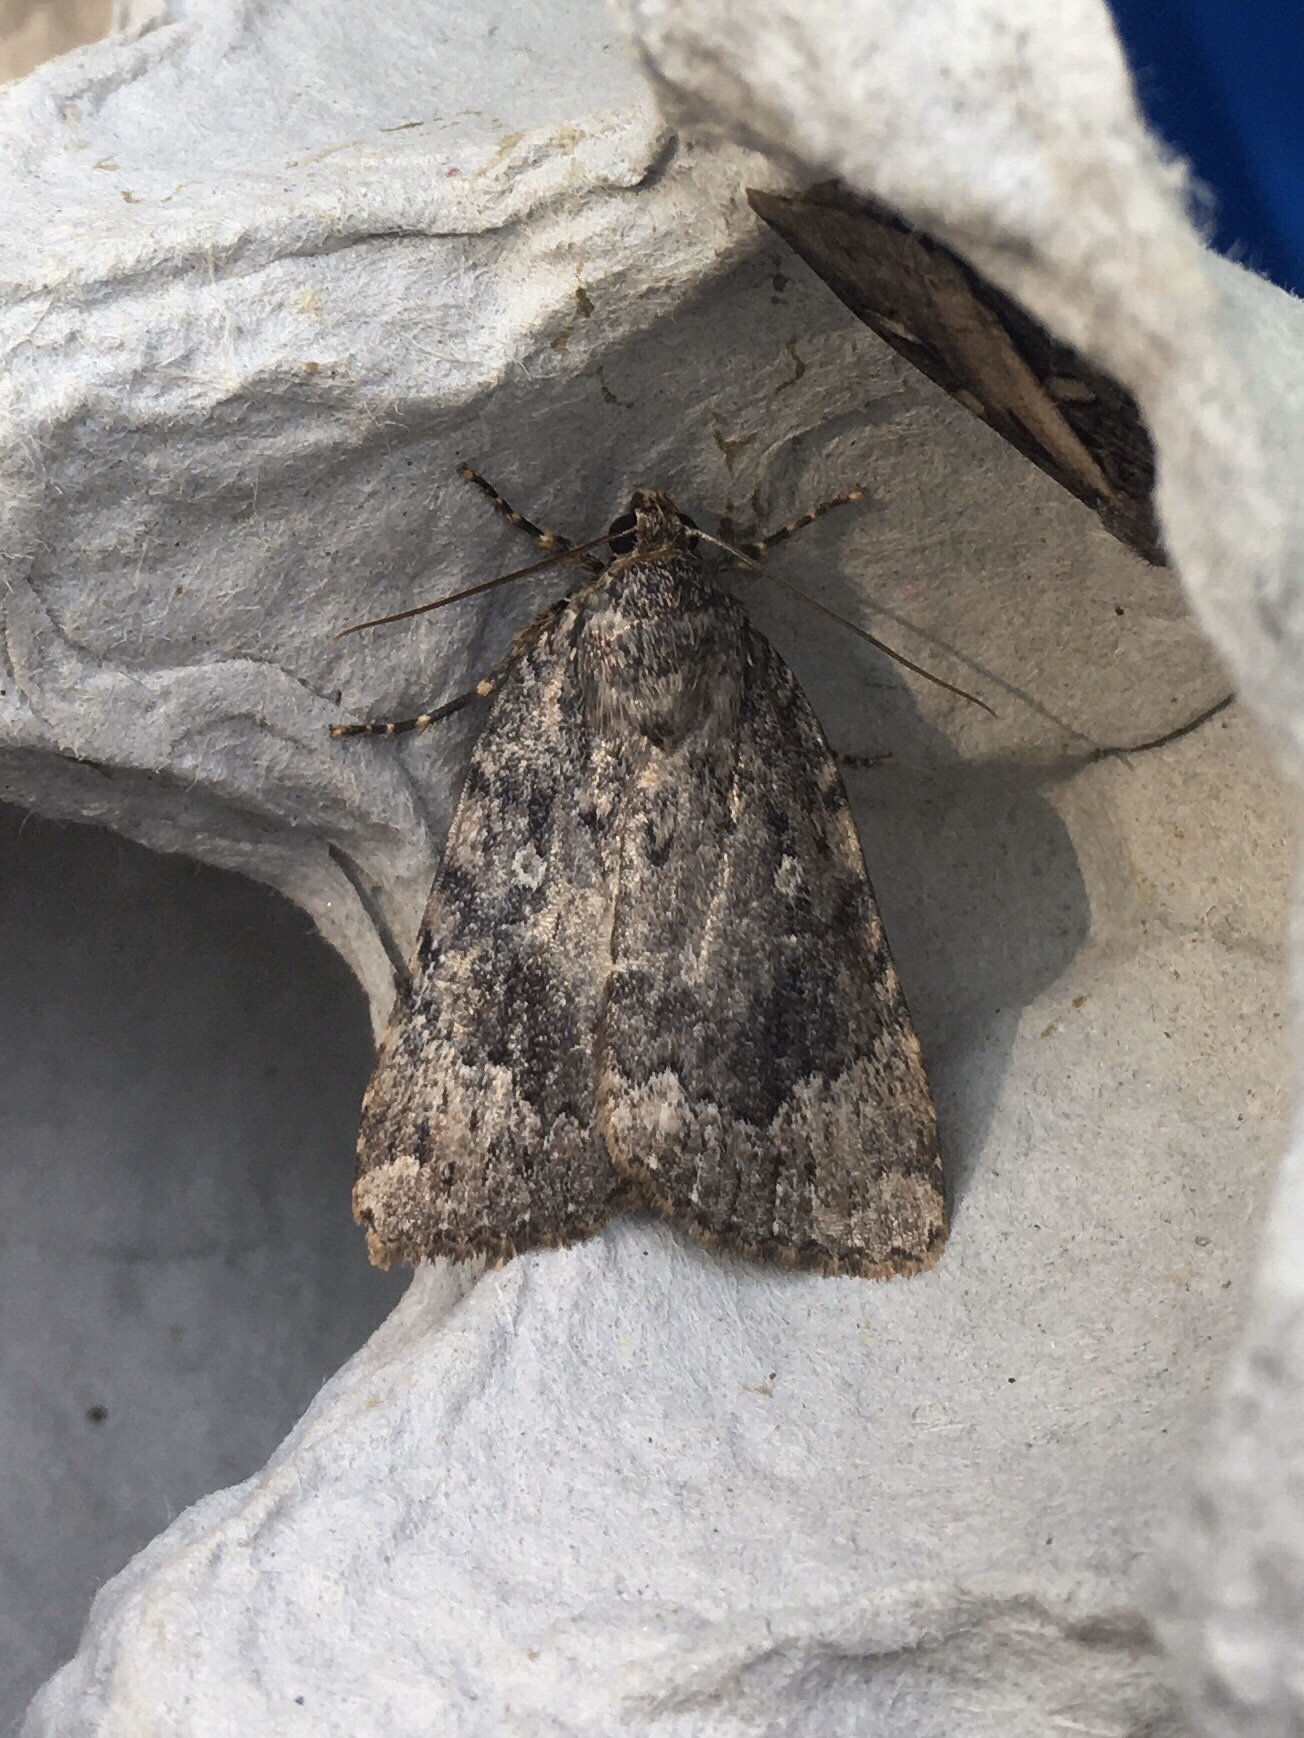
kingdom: Animalia
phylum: Arthropoda
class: Insecta
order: Lepidoptera
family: Noctuidae
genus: Amphipyra
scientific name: Amphipyra pyramidoides
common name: American copper underwing
